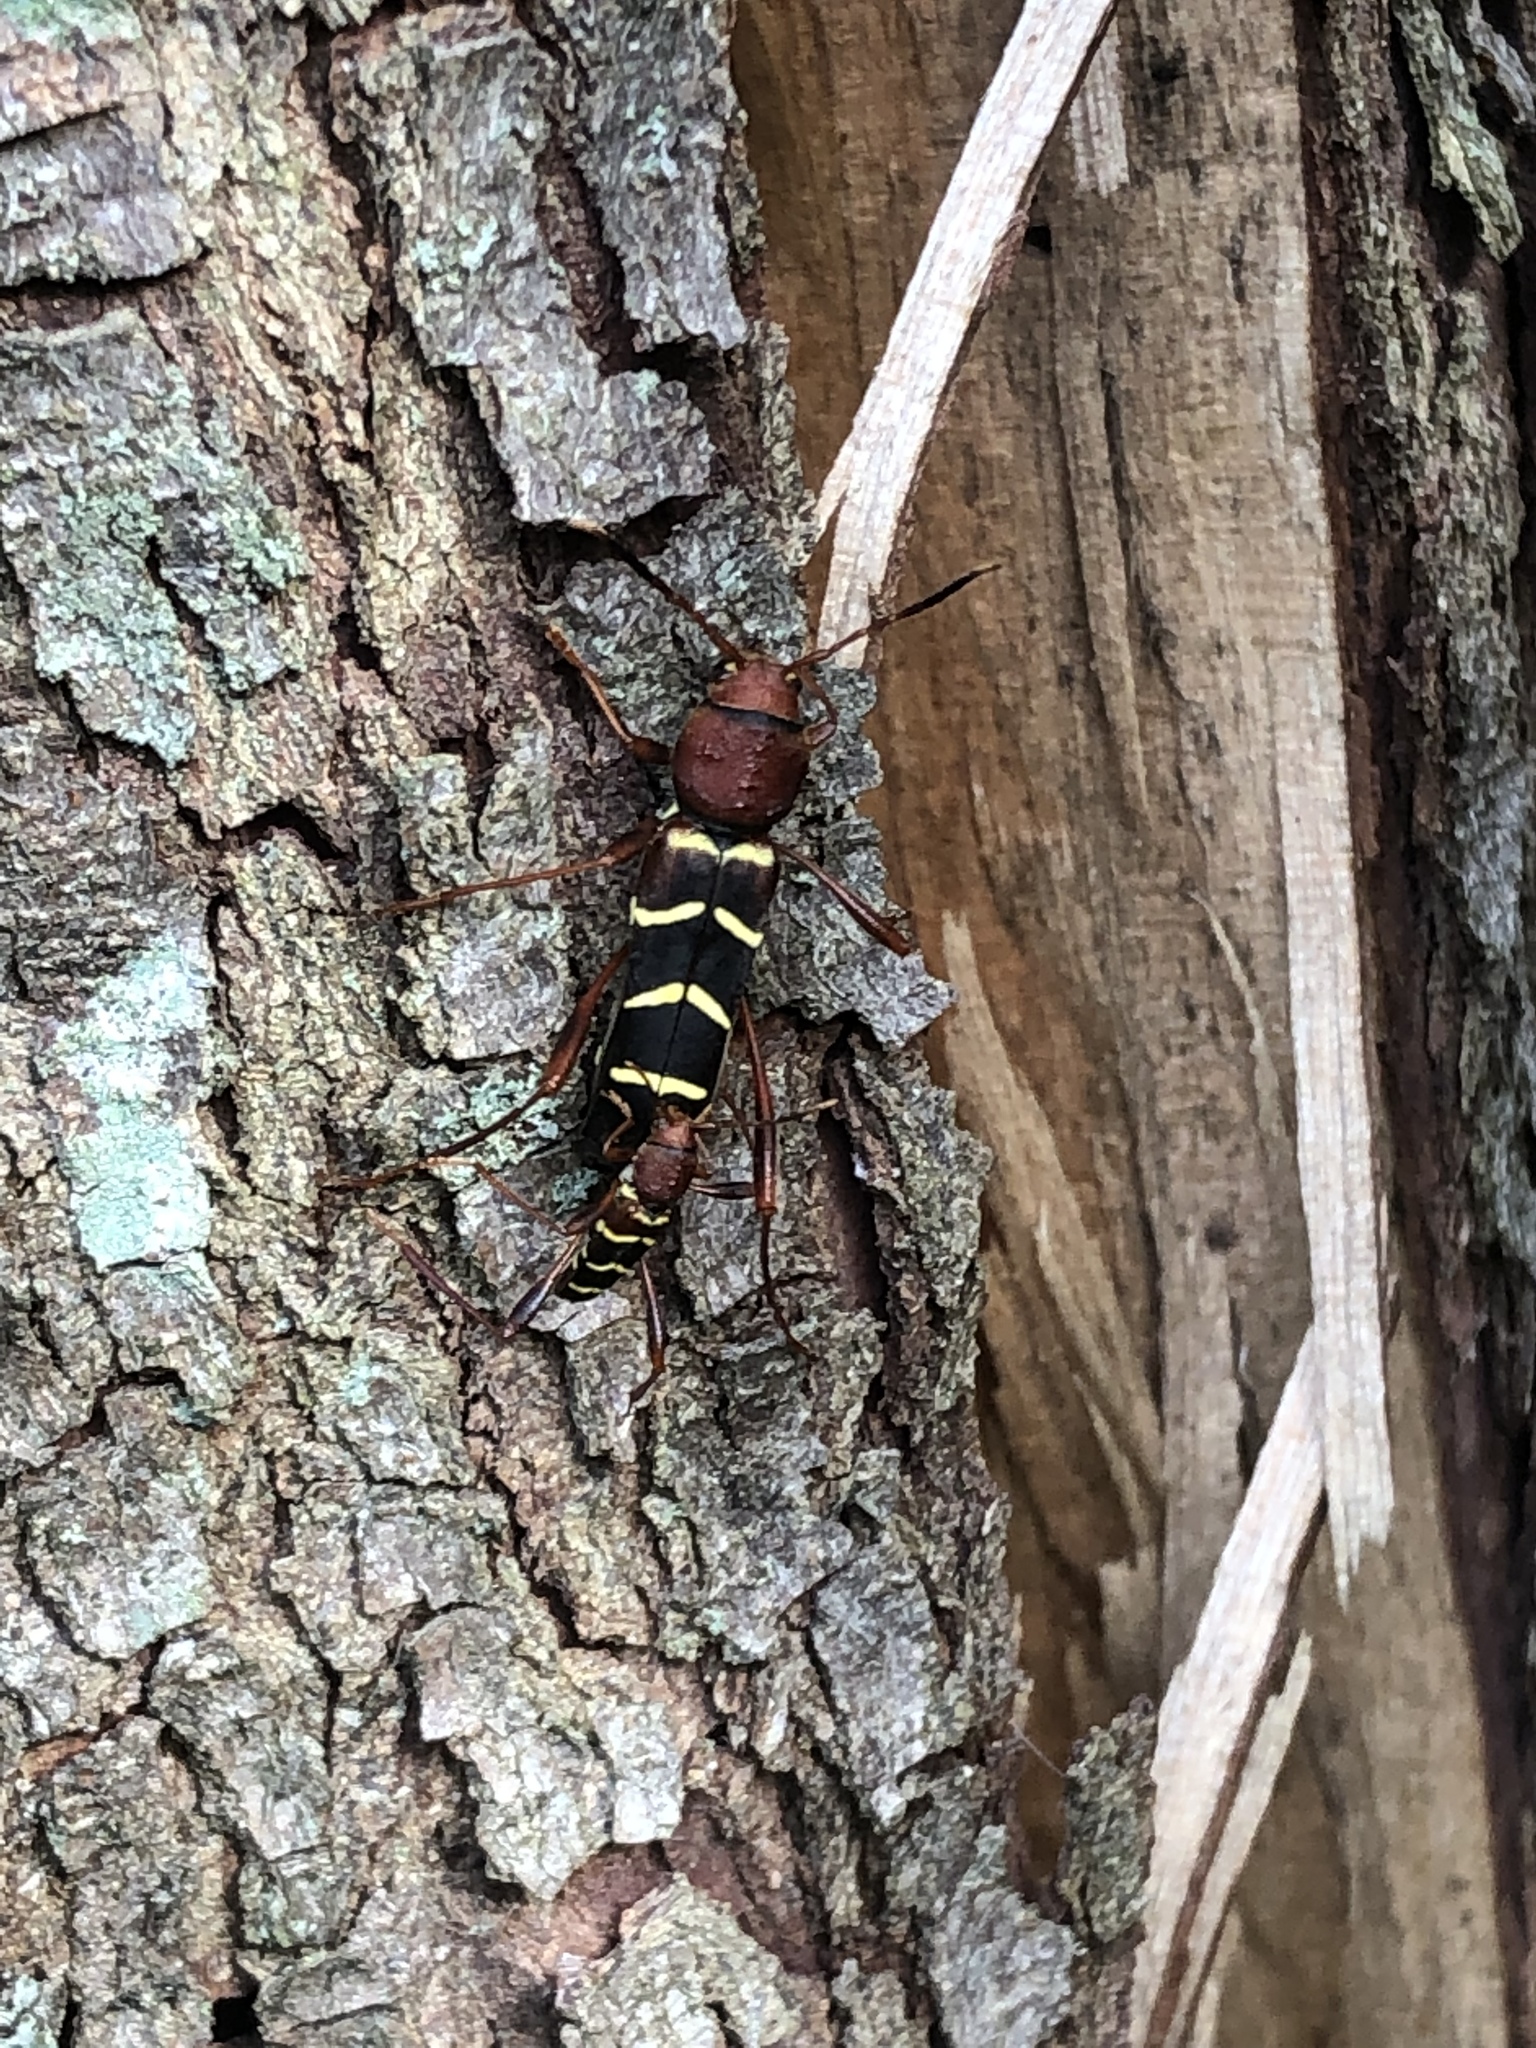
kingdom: Animalia
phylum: Arthropoda
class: Insecta
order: Coleoptera
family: Cerambycidae
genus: Neoclytus
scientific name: Neoclytus acuminatus
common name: Read-headed ash borer
